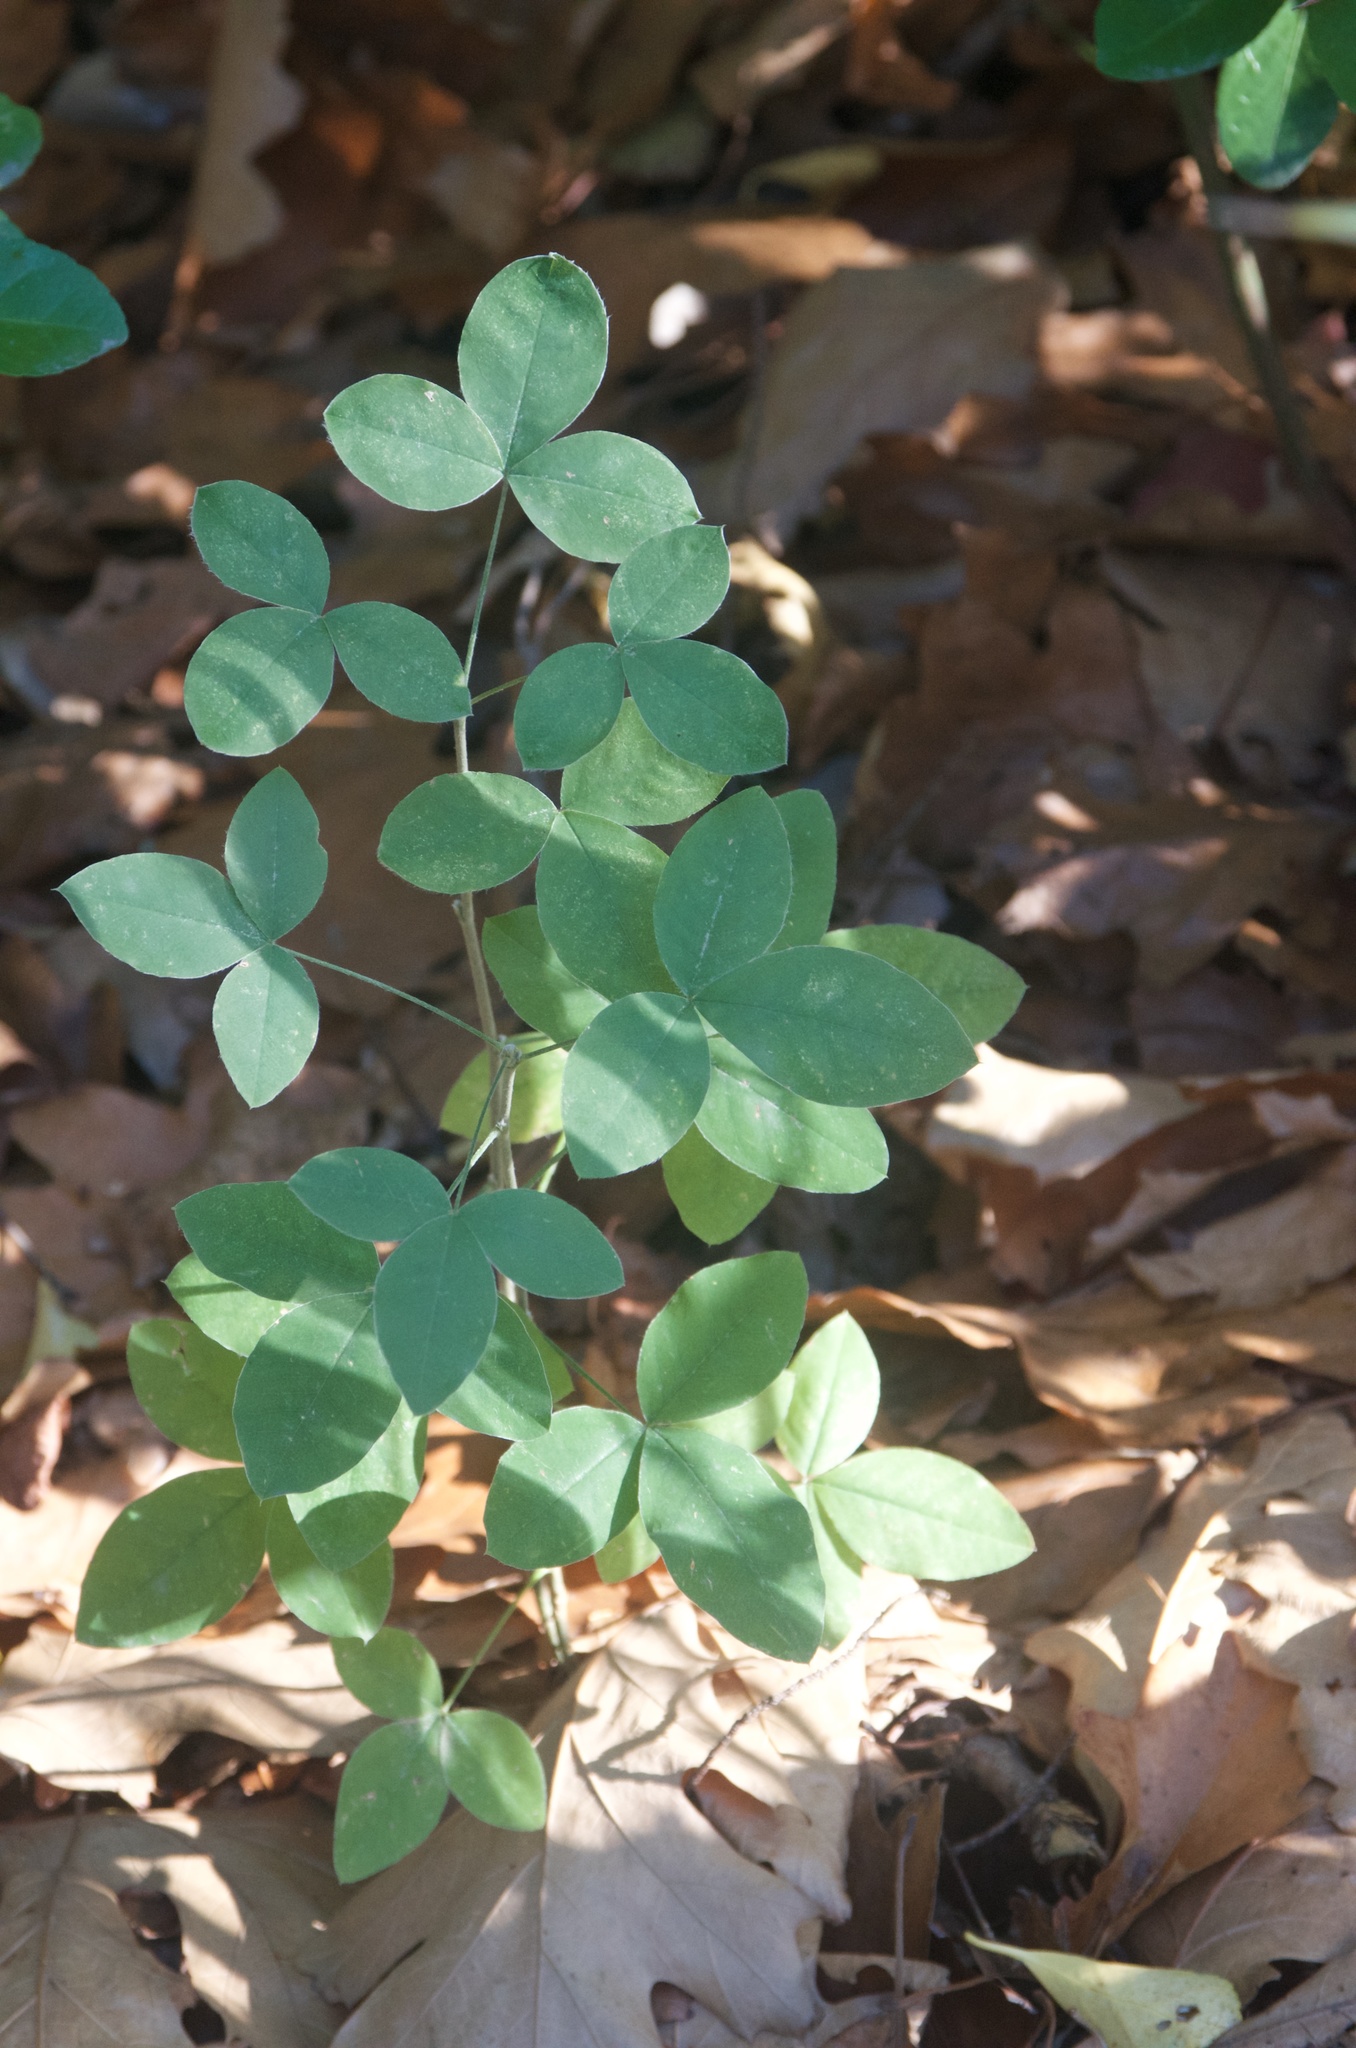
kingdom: Plantae
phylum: Tracheophyta
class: Magnoliopsida
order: Fabales
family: Fabaceae
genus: Laburnum
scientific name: Laburnum anagyroides
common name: Laburnum
